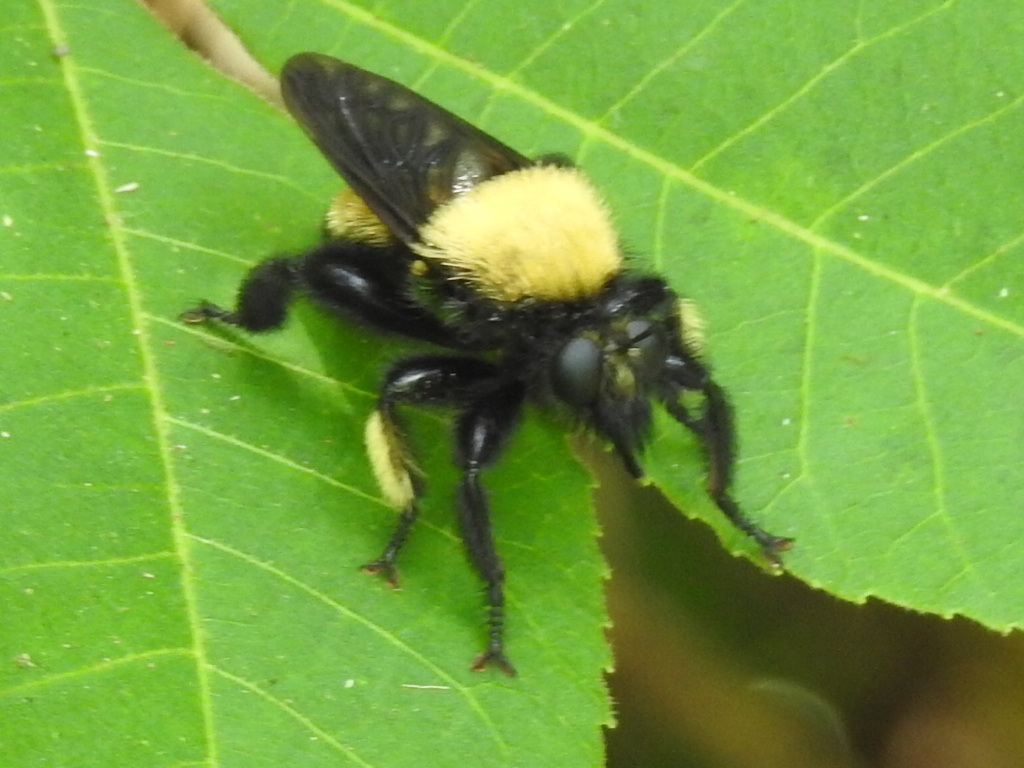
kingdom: Animalia
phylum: Arthropoda
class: Insecta
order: Diptera
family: Asilidae
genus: Laphria
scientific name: Laphria macquarti
